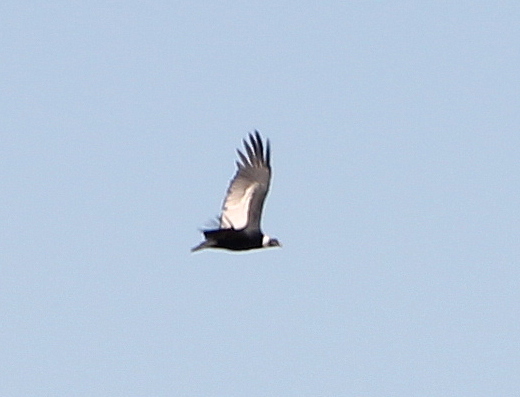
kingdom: Animalia
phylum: Chordata
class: Aves
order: Accipitriformes
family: Cathartidae
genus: Vultur
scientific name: Vultur gryphus
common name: Andean condor
